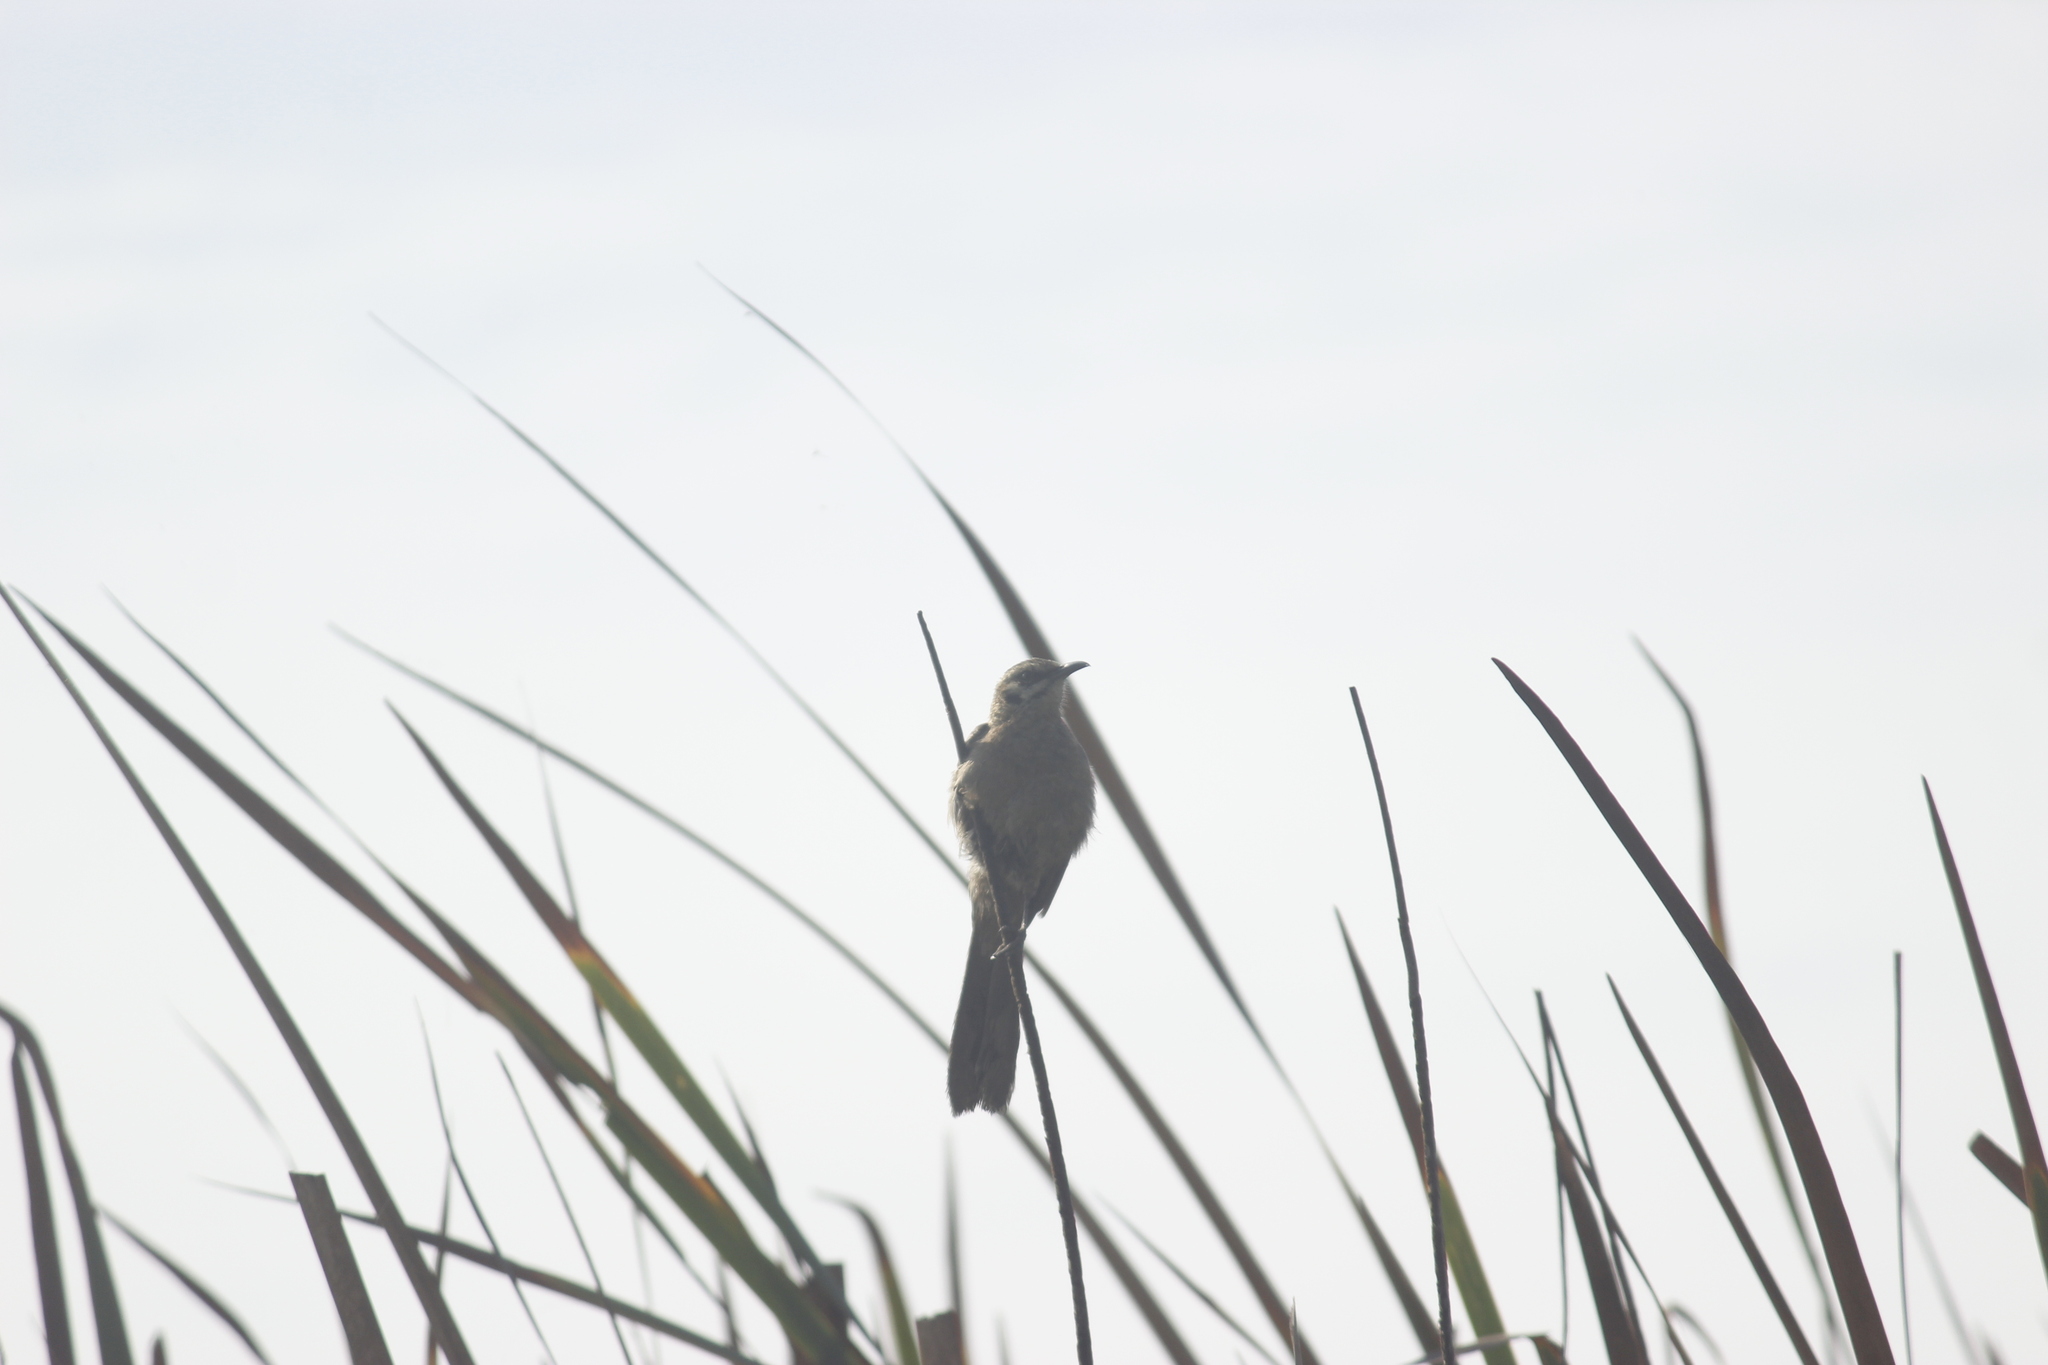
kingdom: Animalia
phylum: Chordata
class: Aves
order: Passeriformes
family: Mimidae
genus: Mimus
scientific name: Mimus longicaudatus
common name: Long-tailed mockingbird
